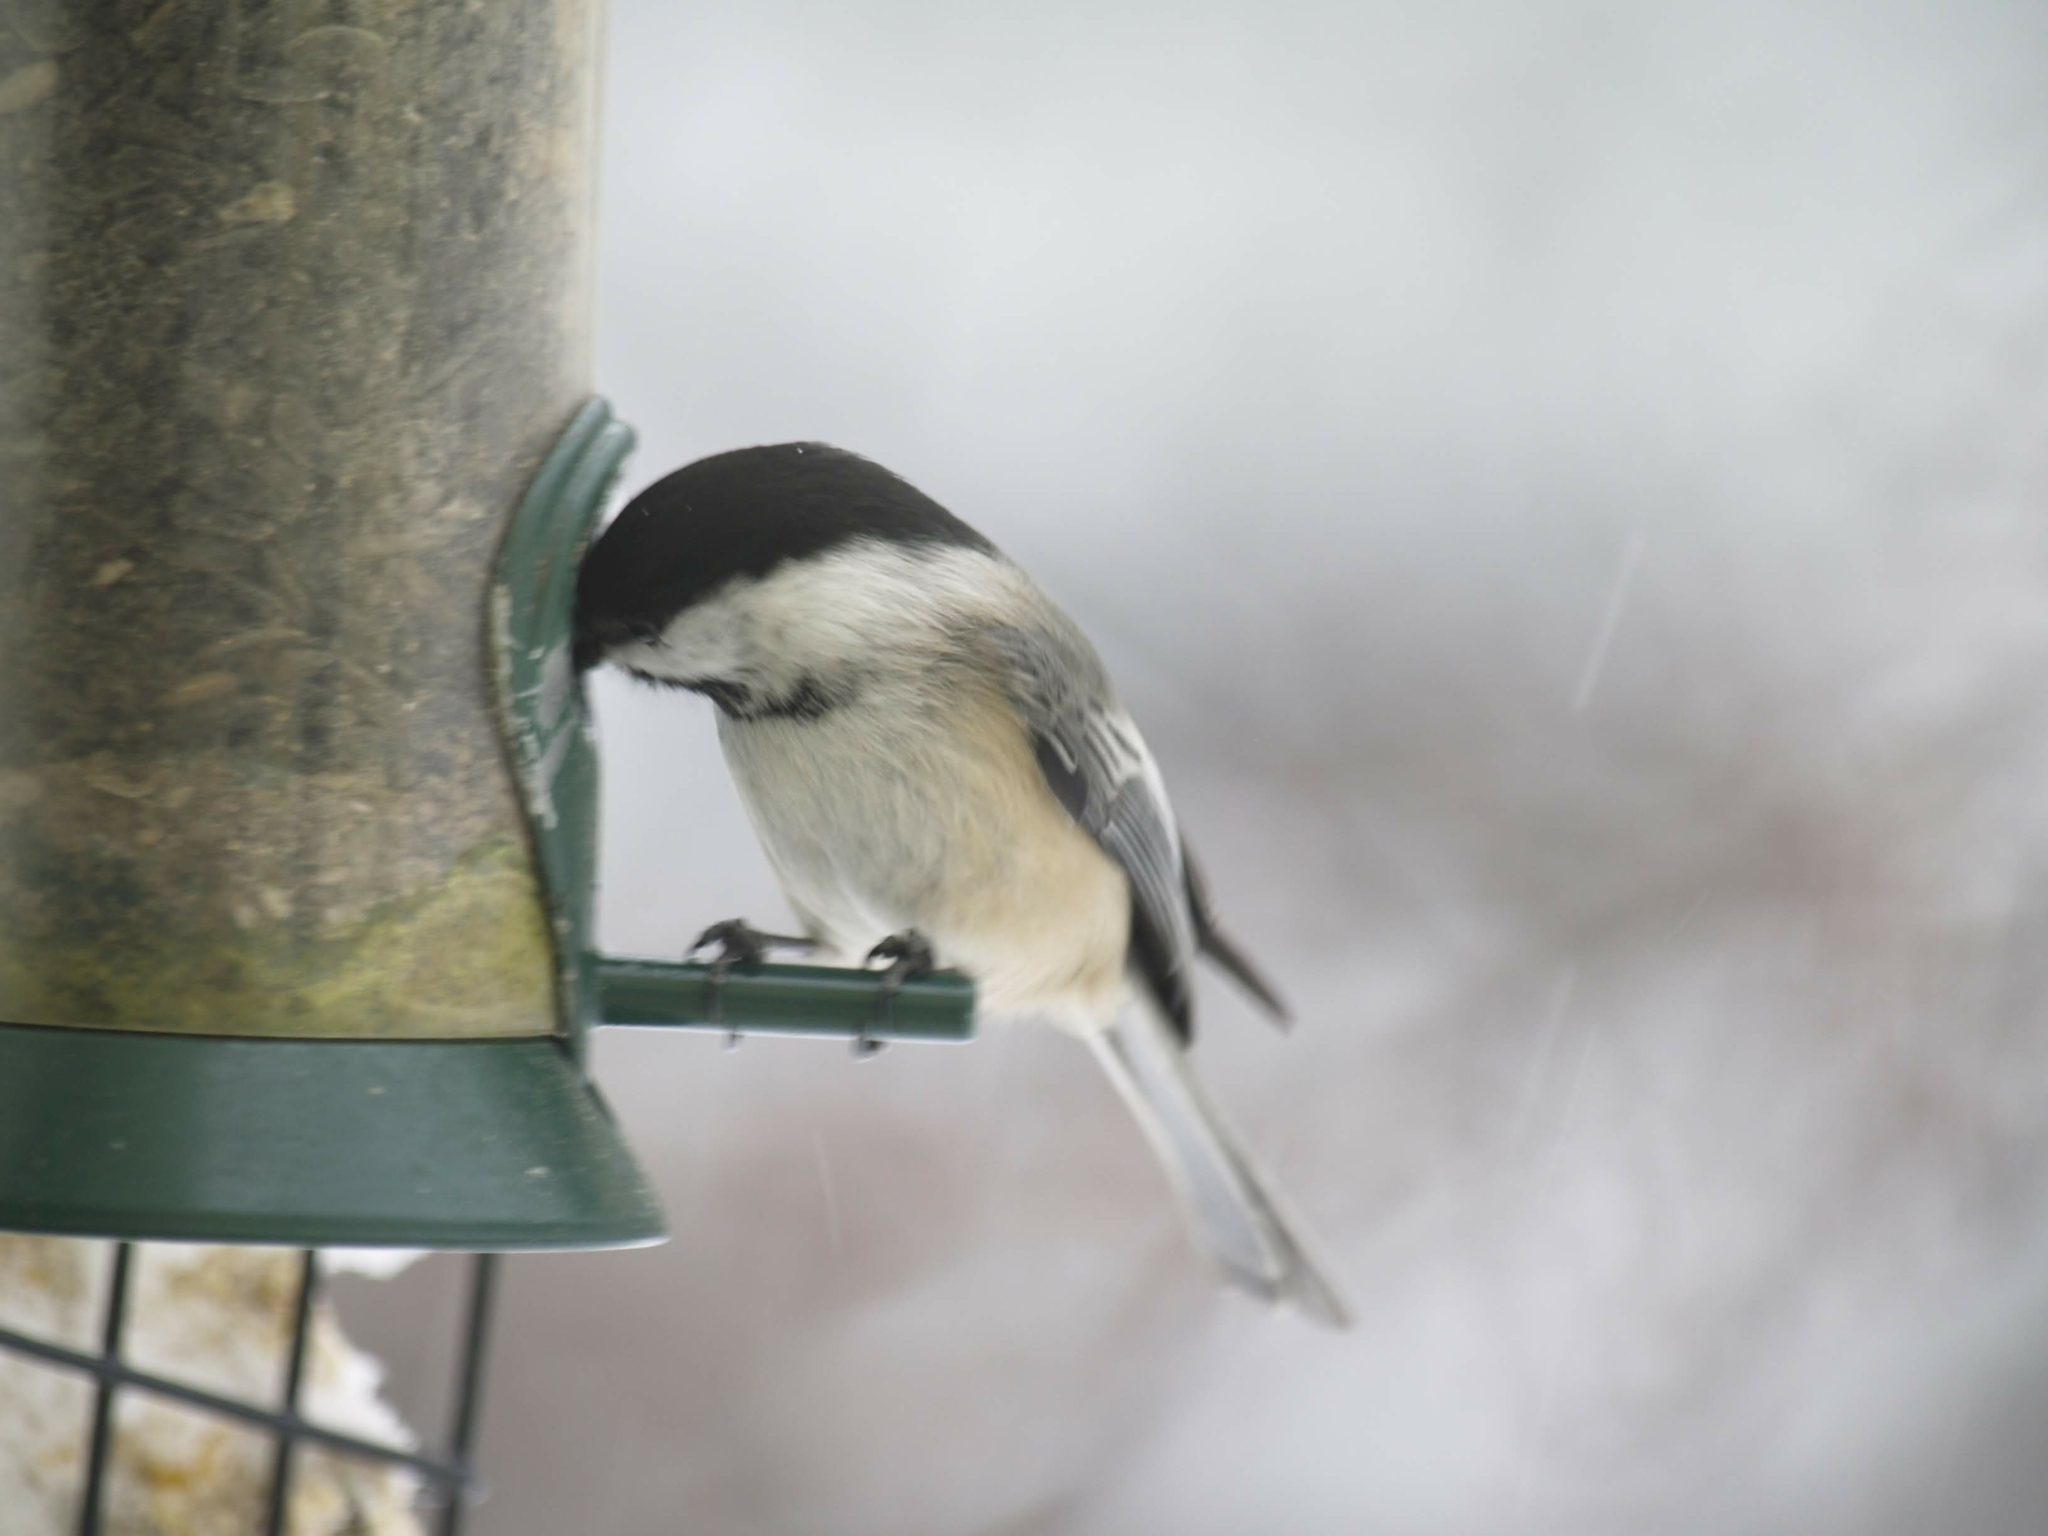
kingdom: Animalia
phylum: Chordata
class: Aves
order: Passeriformes
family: Paridae
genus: Poecile
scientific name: Poecile atricapillus
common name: Black-capped chickadee
